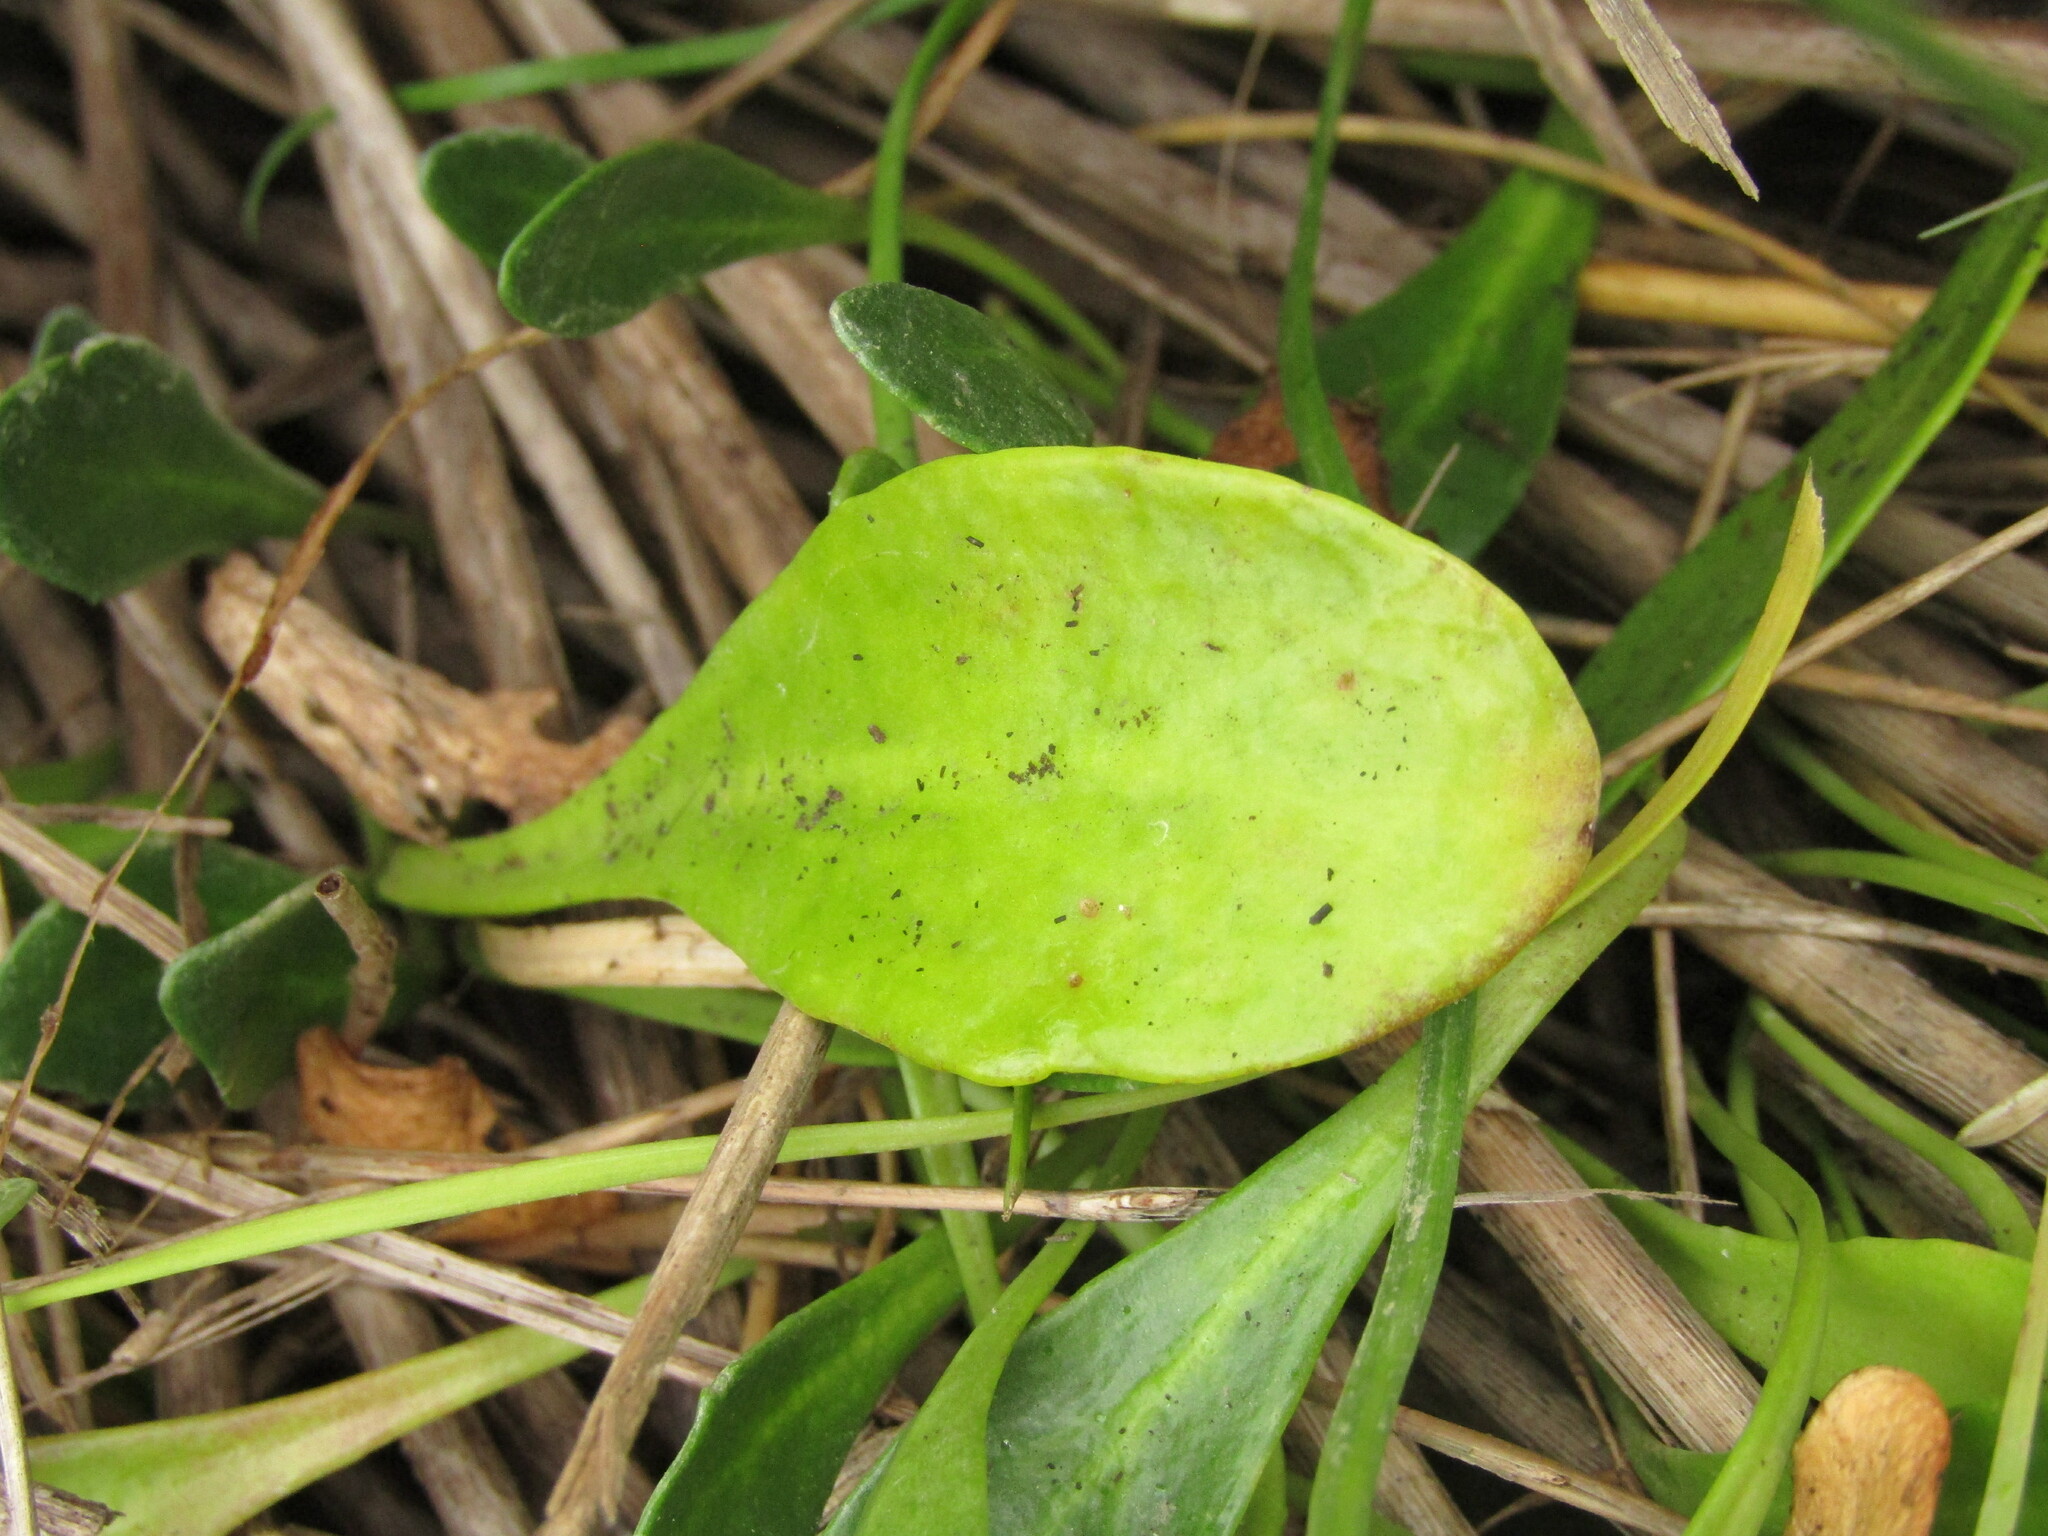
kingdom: Plantae
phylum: Tracheophyta
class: Magnoliopsida
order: Asterales
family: Goodeniaceae
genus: Goodenia
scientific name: Goodenia radicans
